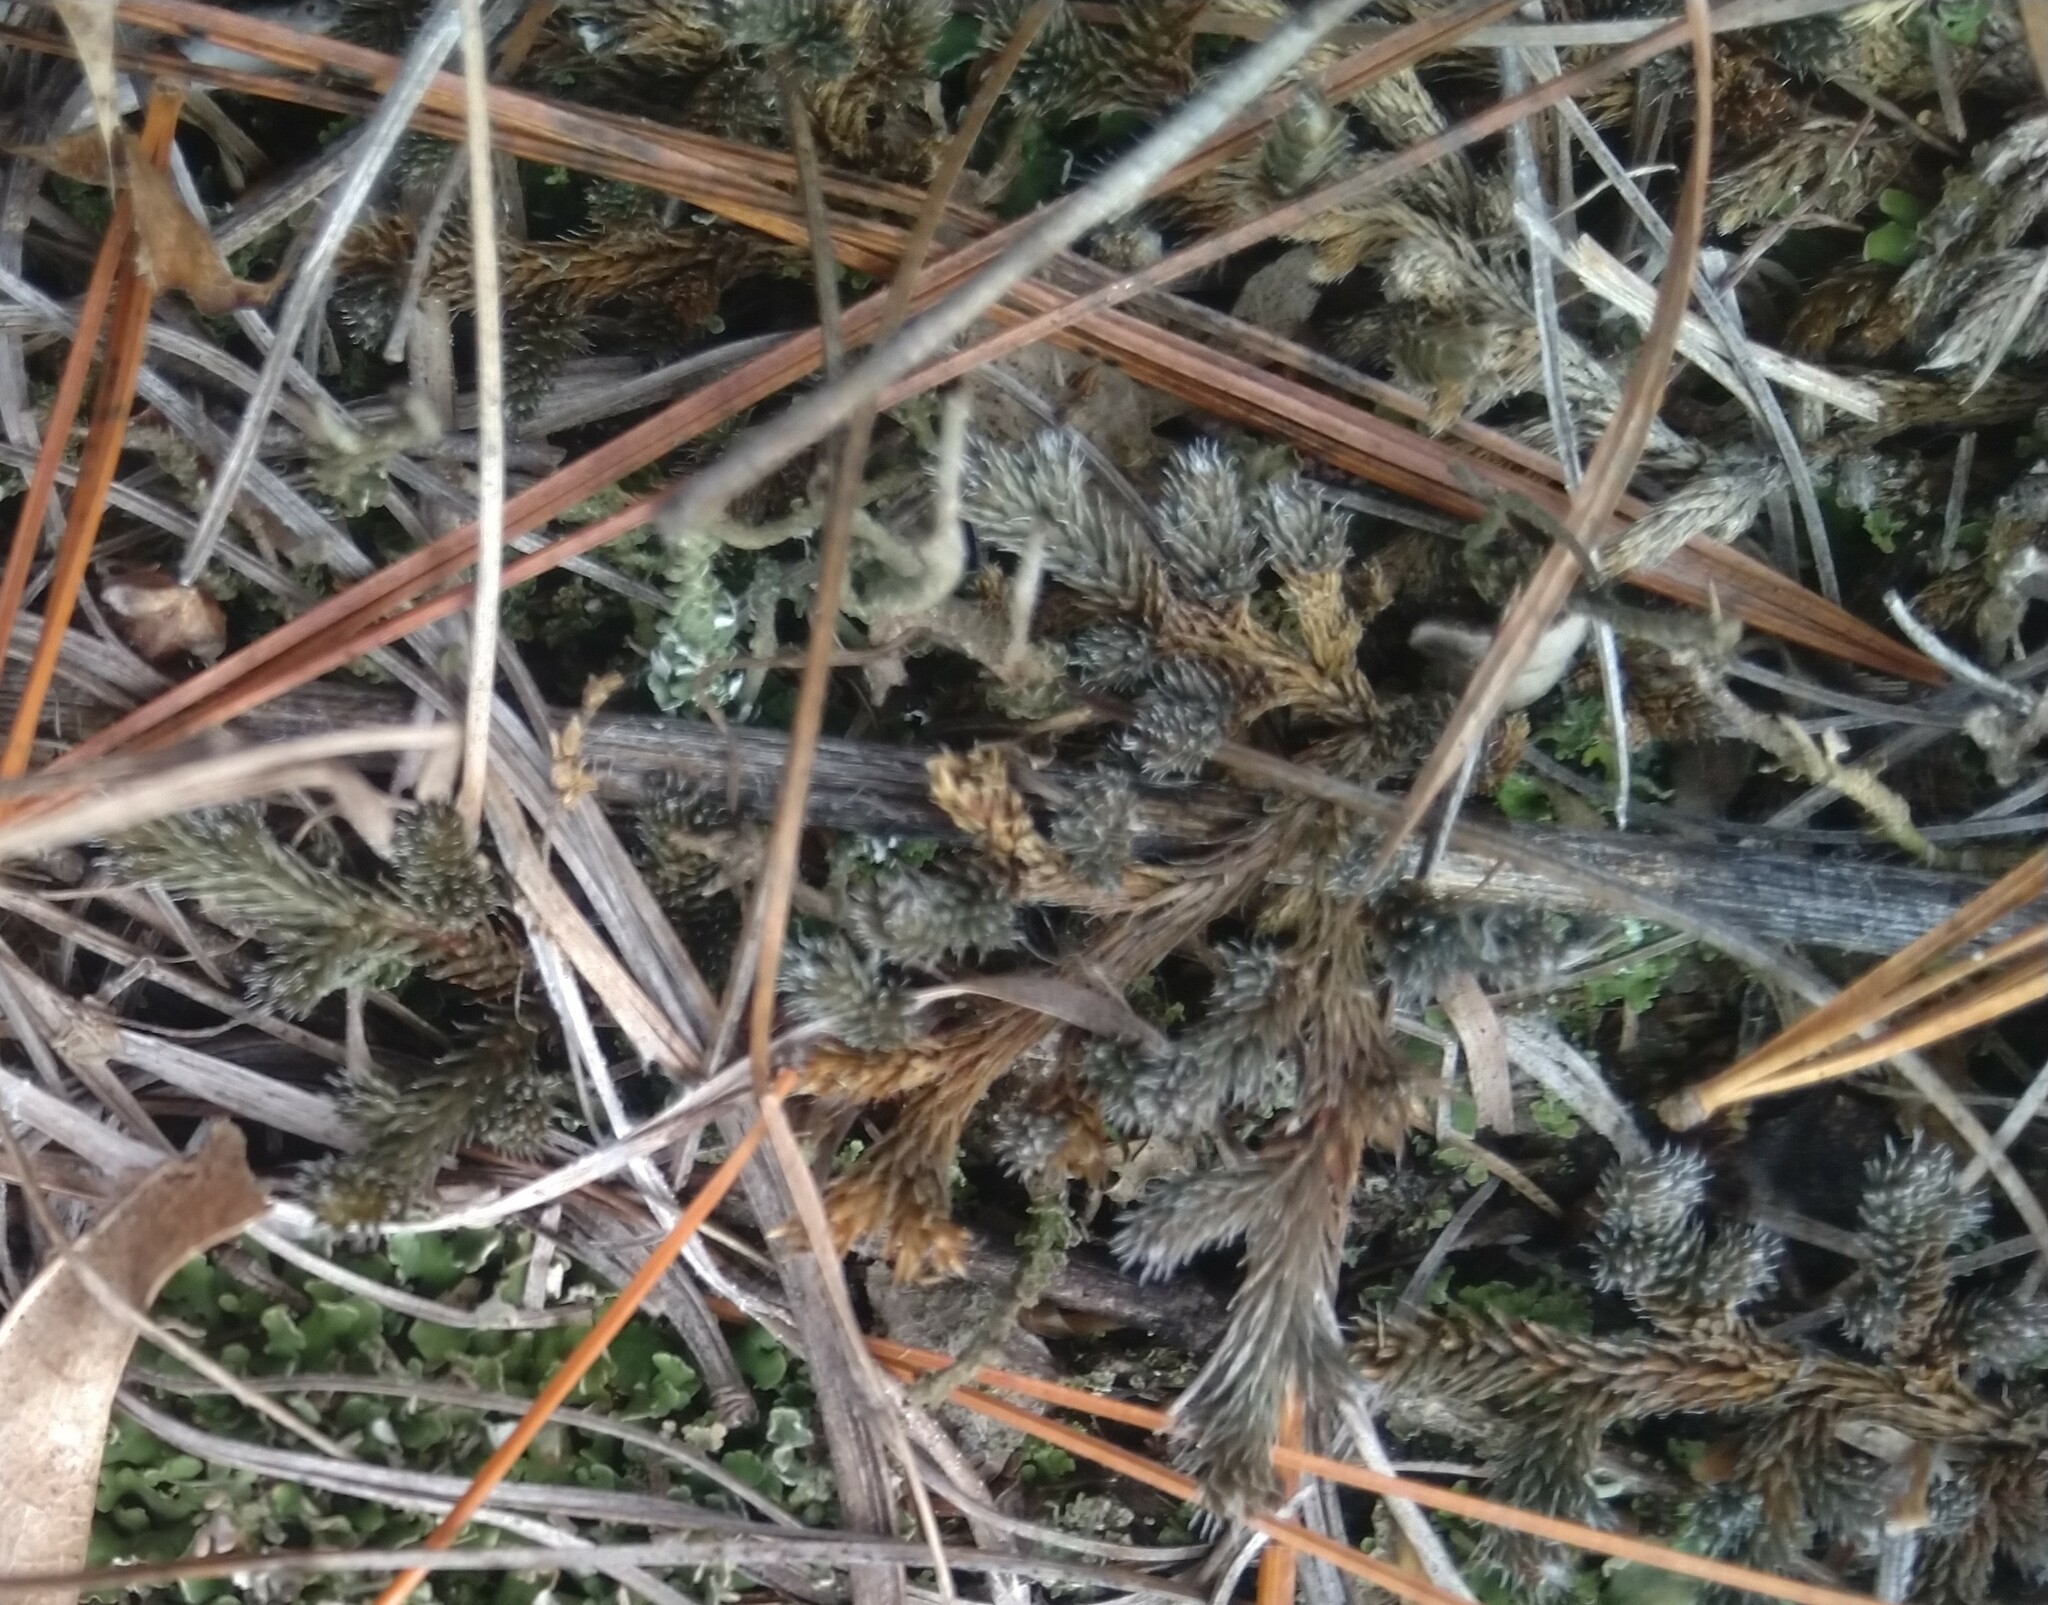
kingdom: Plantae
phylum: Tracheophyta
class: Lycopodiopsida
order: Selaginellales
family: Selaginellaceae
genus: Selaginella
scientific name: Selaginella rupestris
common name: Dwarf spikemoss
